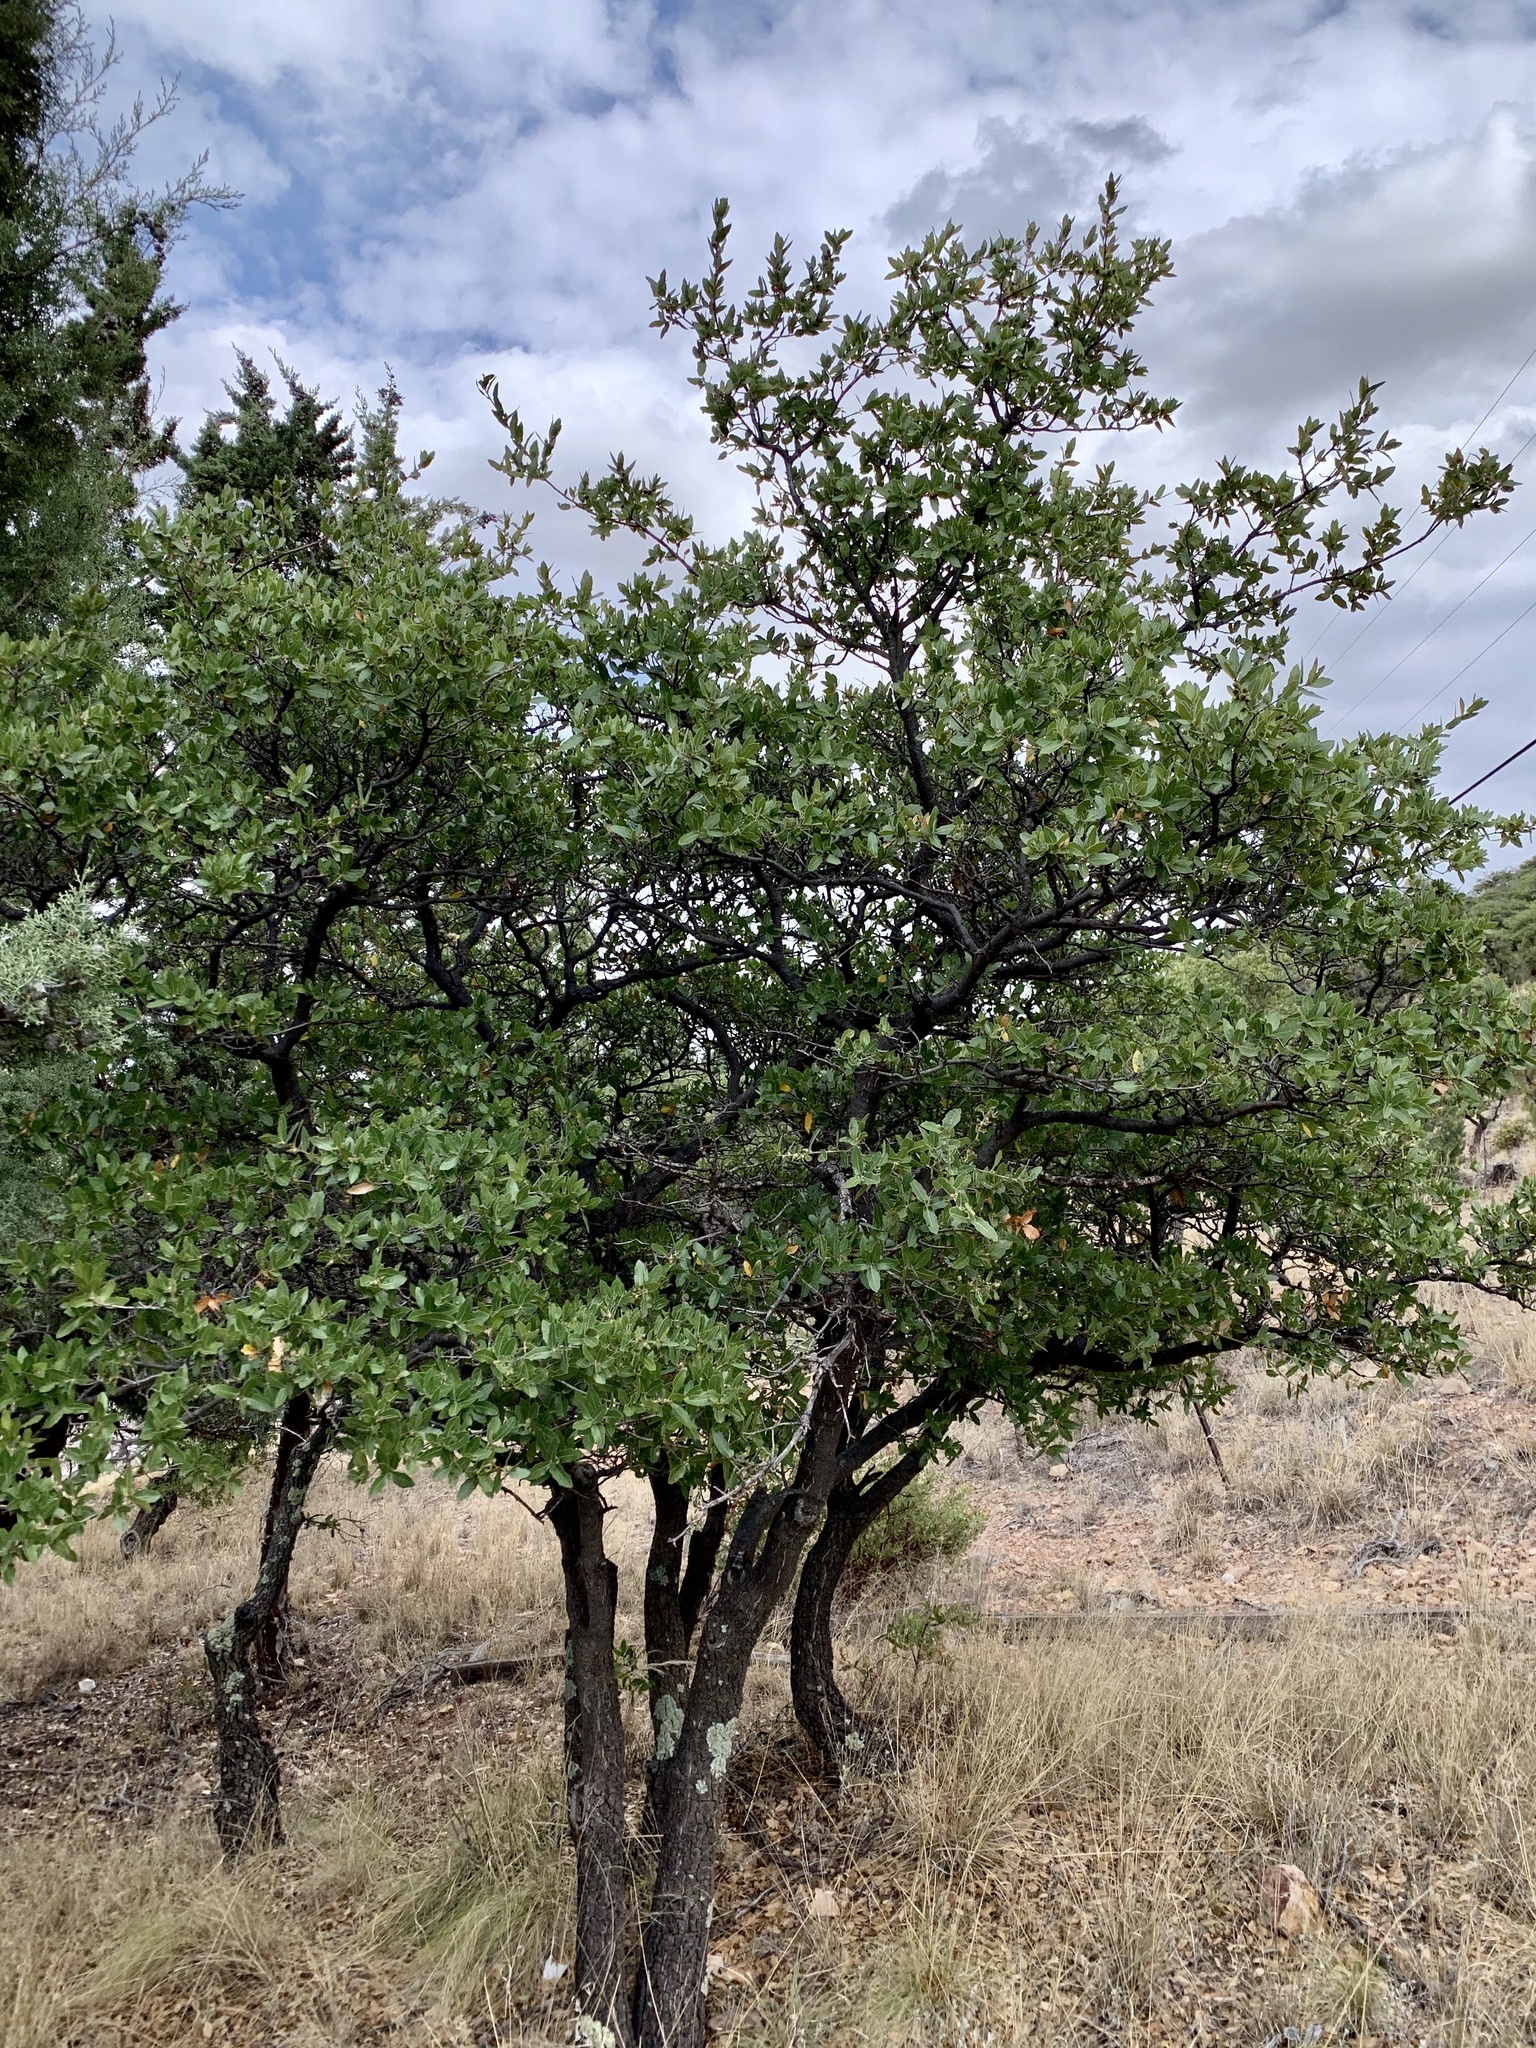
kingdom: Plantae
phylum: Tracheophyta
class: Magnoliopsida
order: Fagales
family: Fagaceae
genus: Quercus
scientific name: Quercus emoryi
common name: Emory oak
